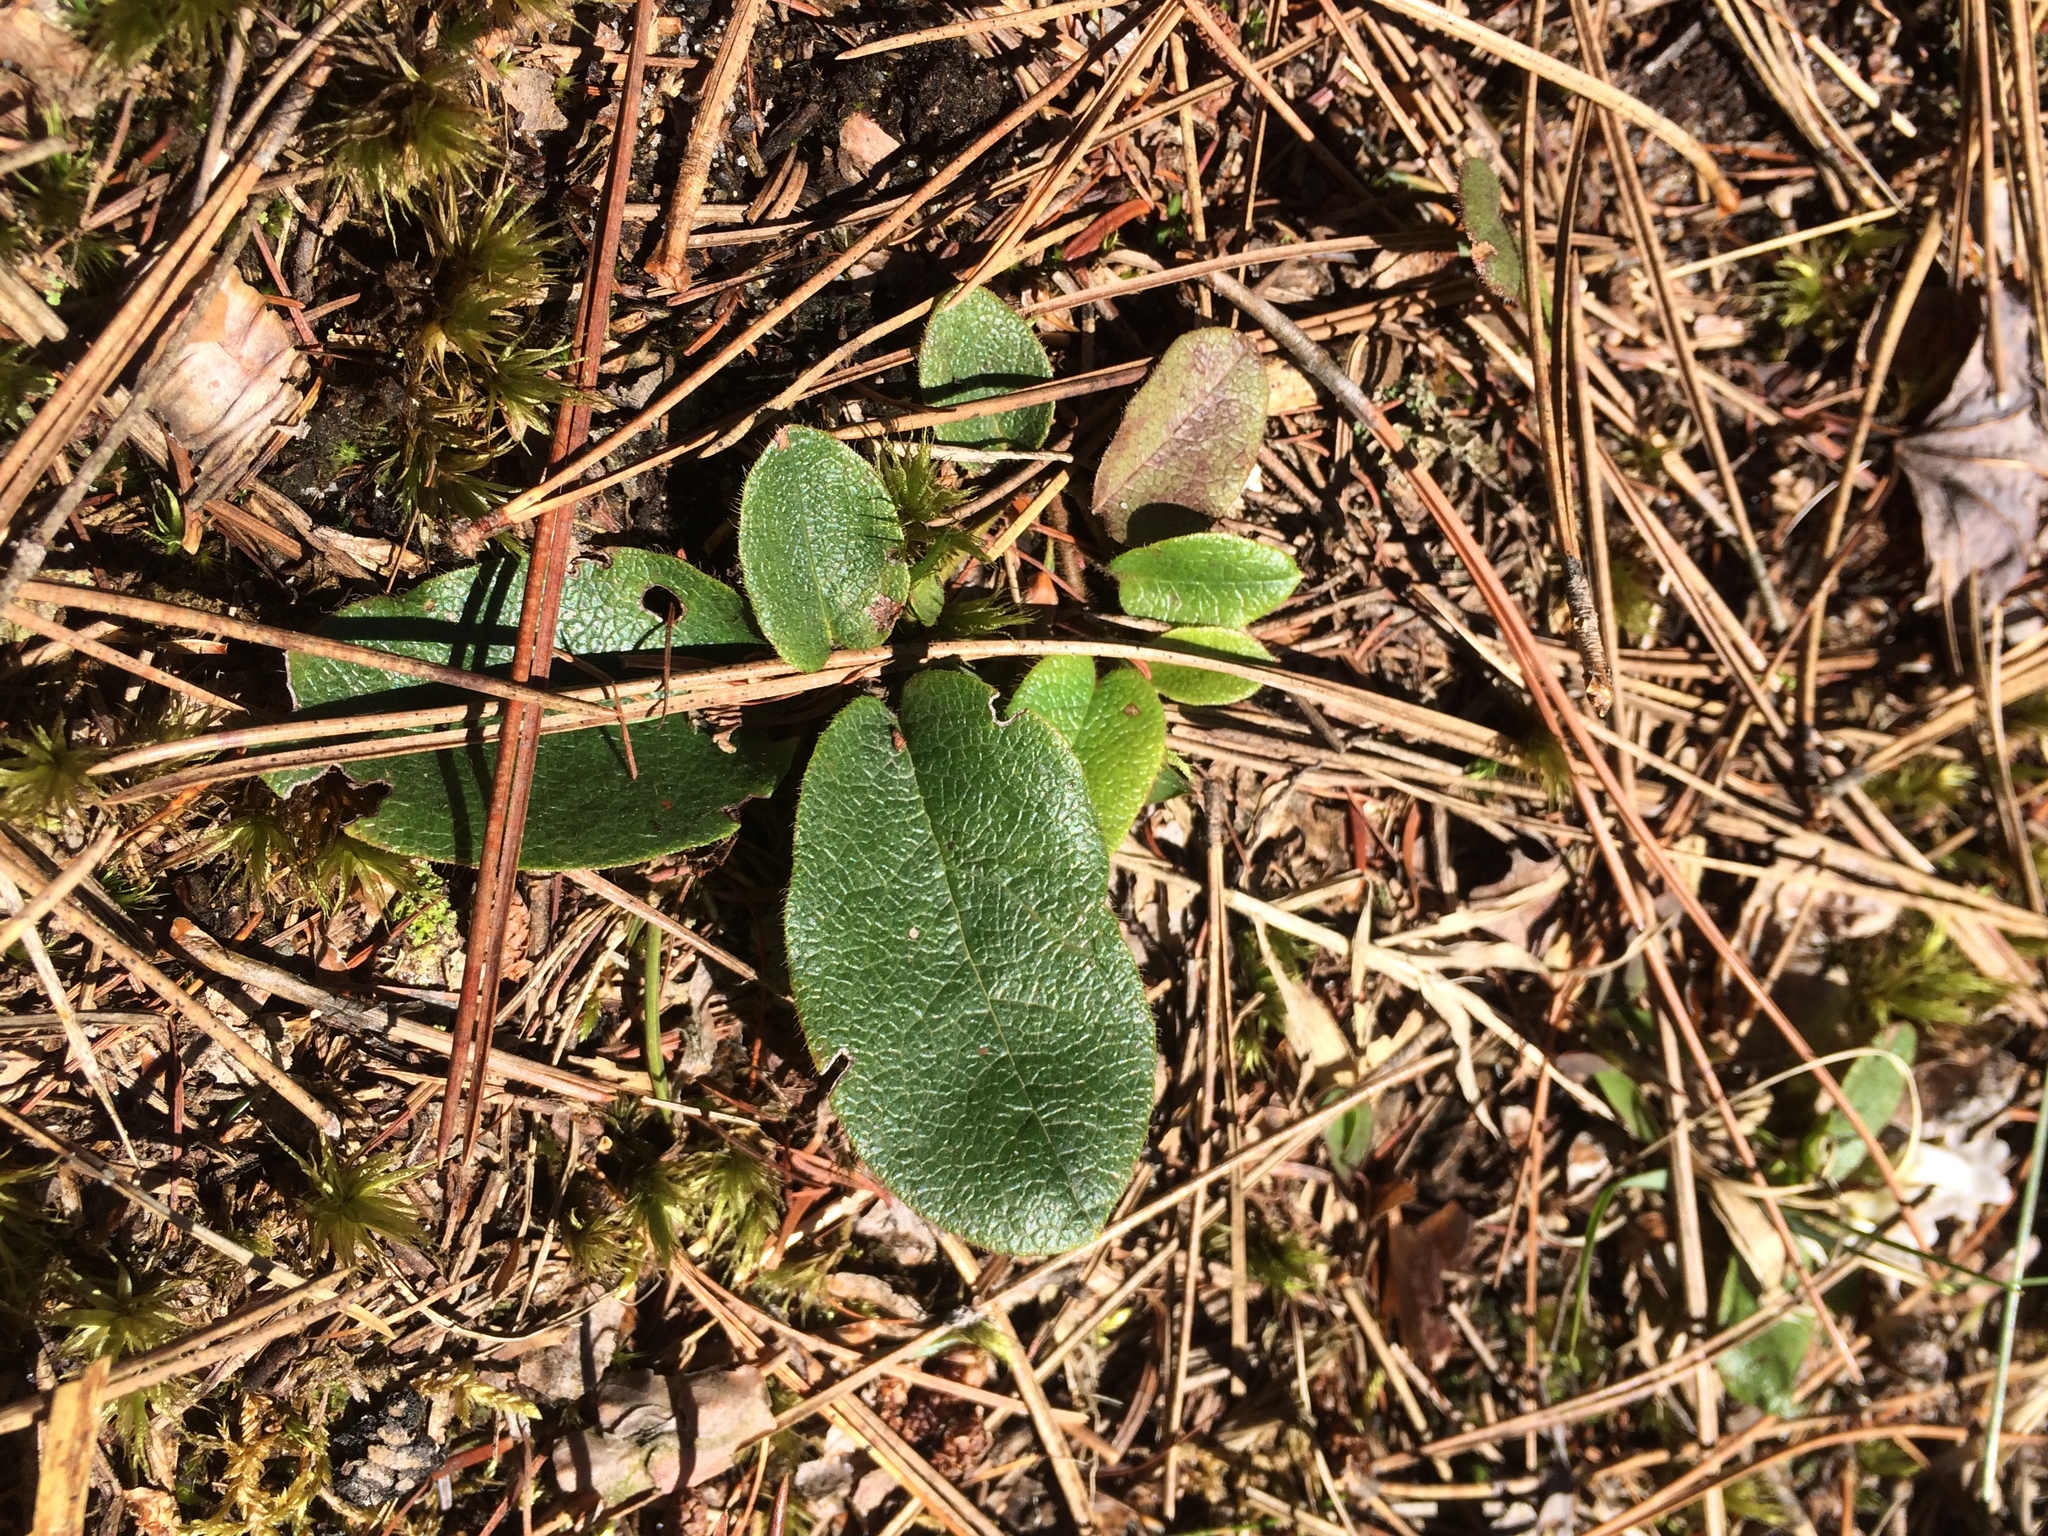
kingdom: Plantae
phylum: Tracheophyta
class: Magnoliopsida
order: Ericales
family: Ericaceae
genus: Epigaea
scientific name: Epigaea repens
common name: Gravelroot
